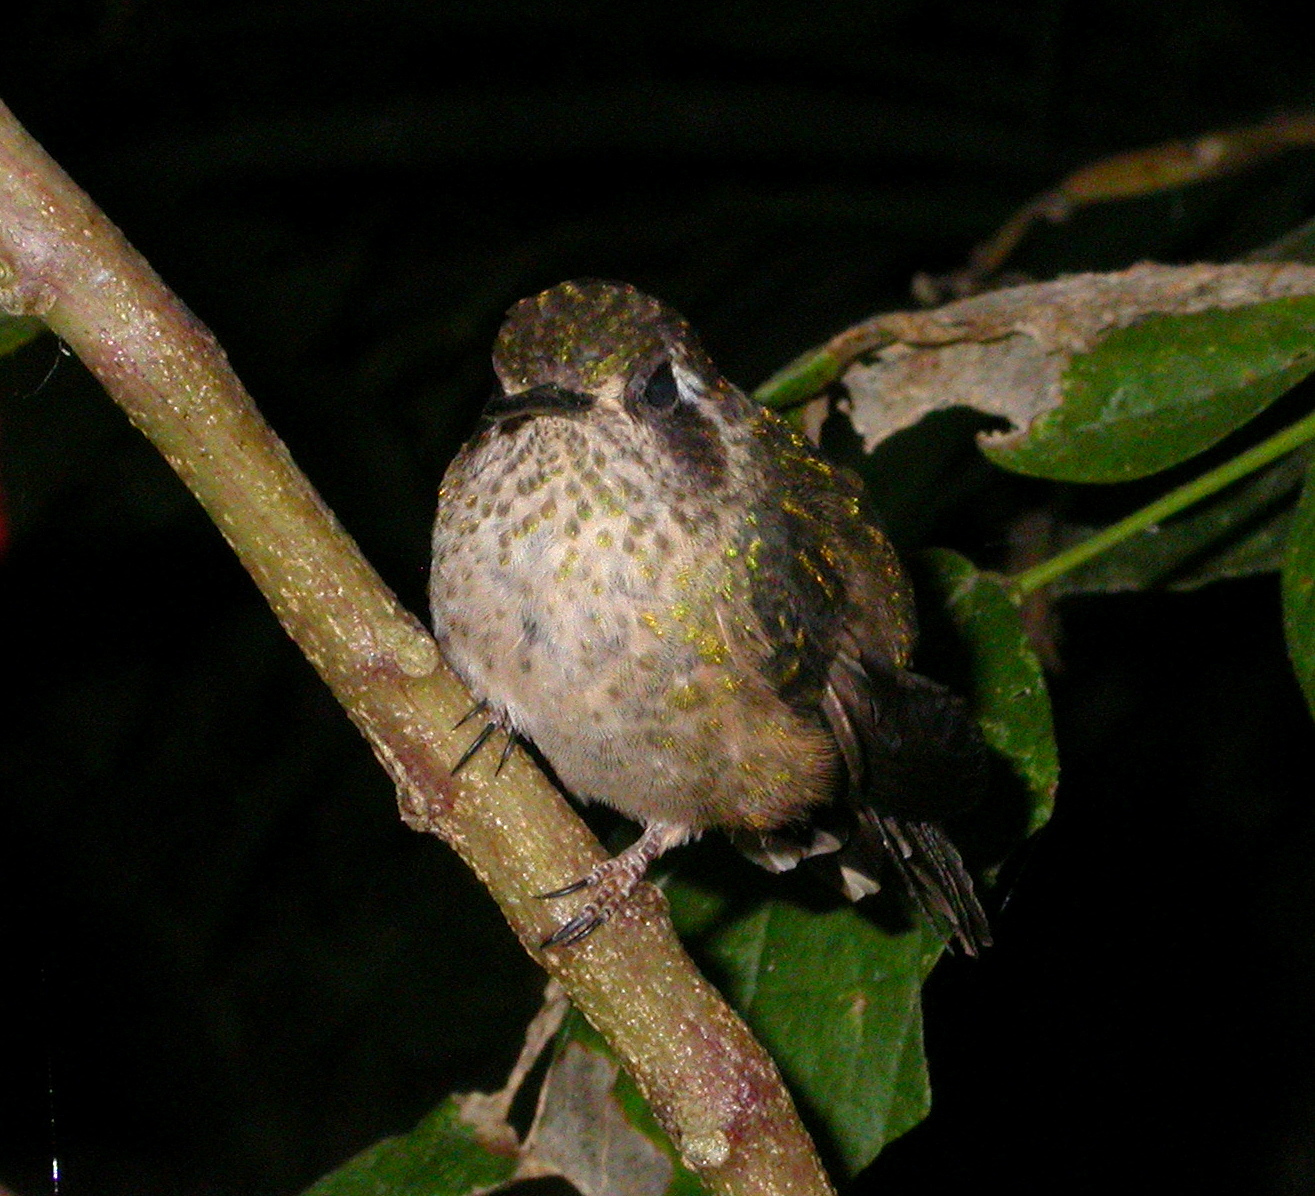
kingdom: Animalia
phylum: Chordata
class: Aves
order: Apodiformes
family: Trochilidae
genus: Adelomyia
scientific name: Adelomyia melanogenys
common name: Speckled hummingbird
